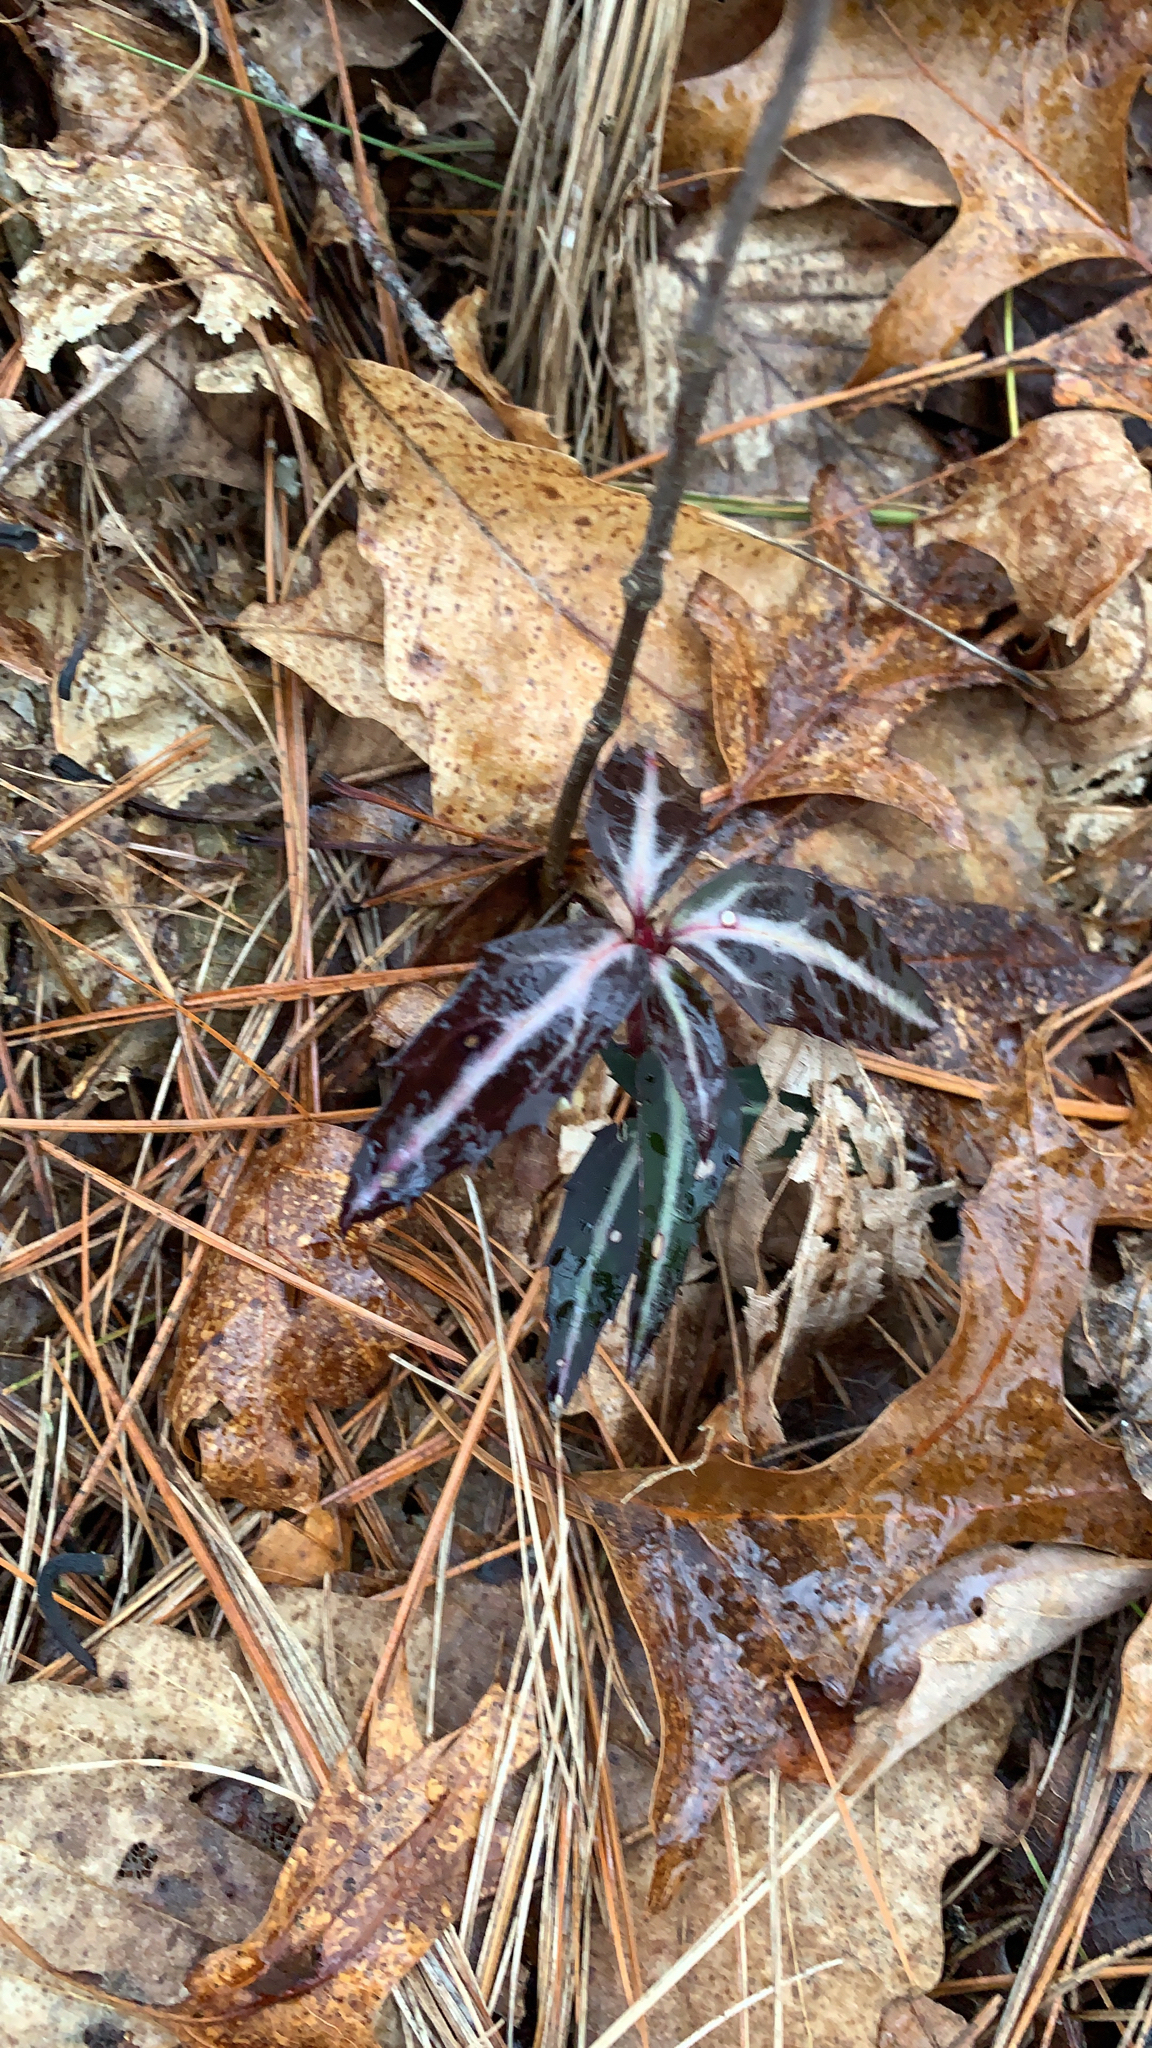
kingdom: Plantae
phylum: Tracheophyta
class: Magnoliopsida
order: Ericales
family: Ericaceae
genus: Chimaphila
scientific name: Chimaphila maculata
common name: Spotted pipsissewa
